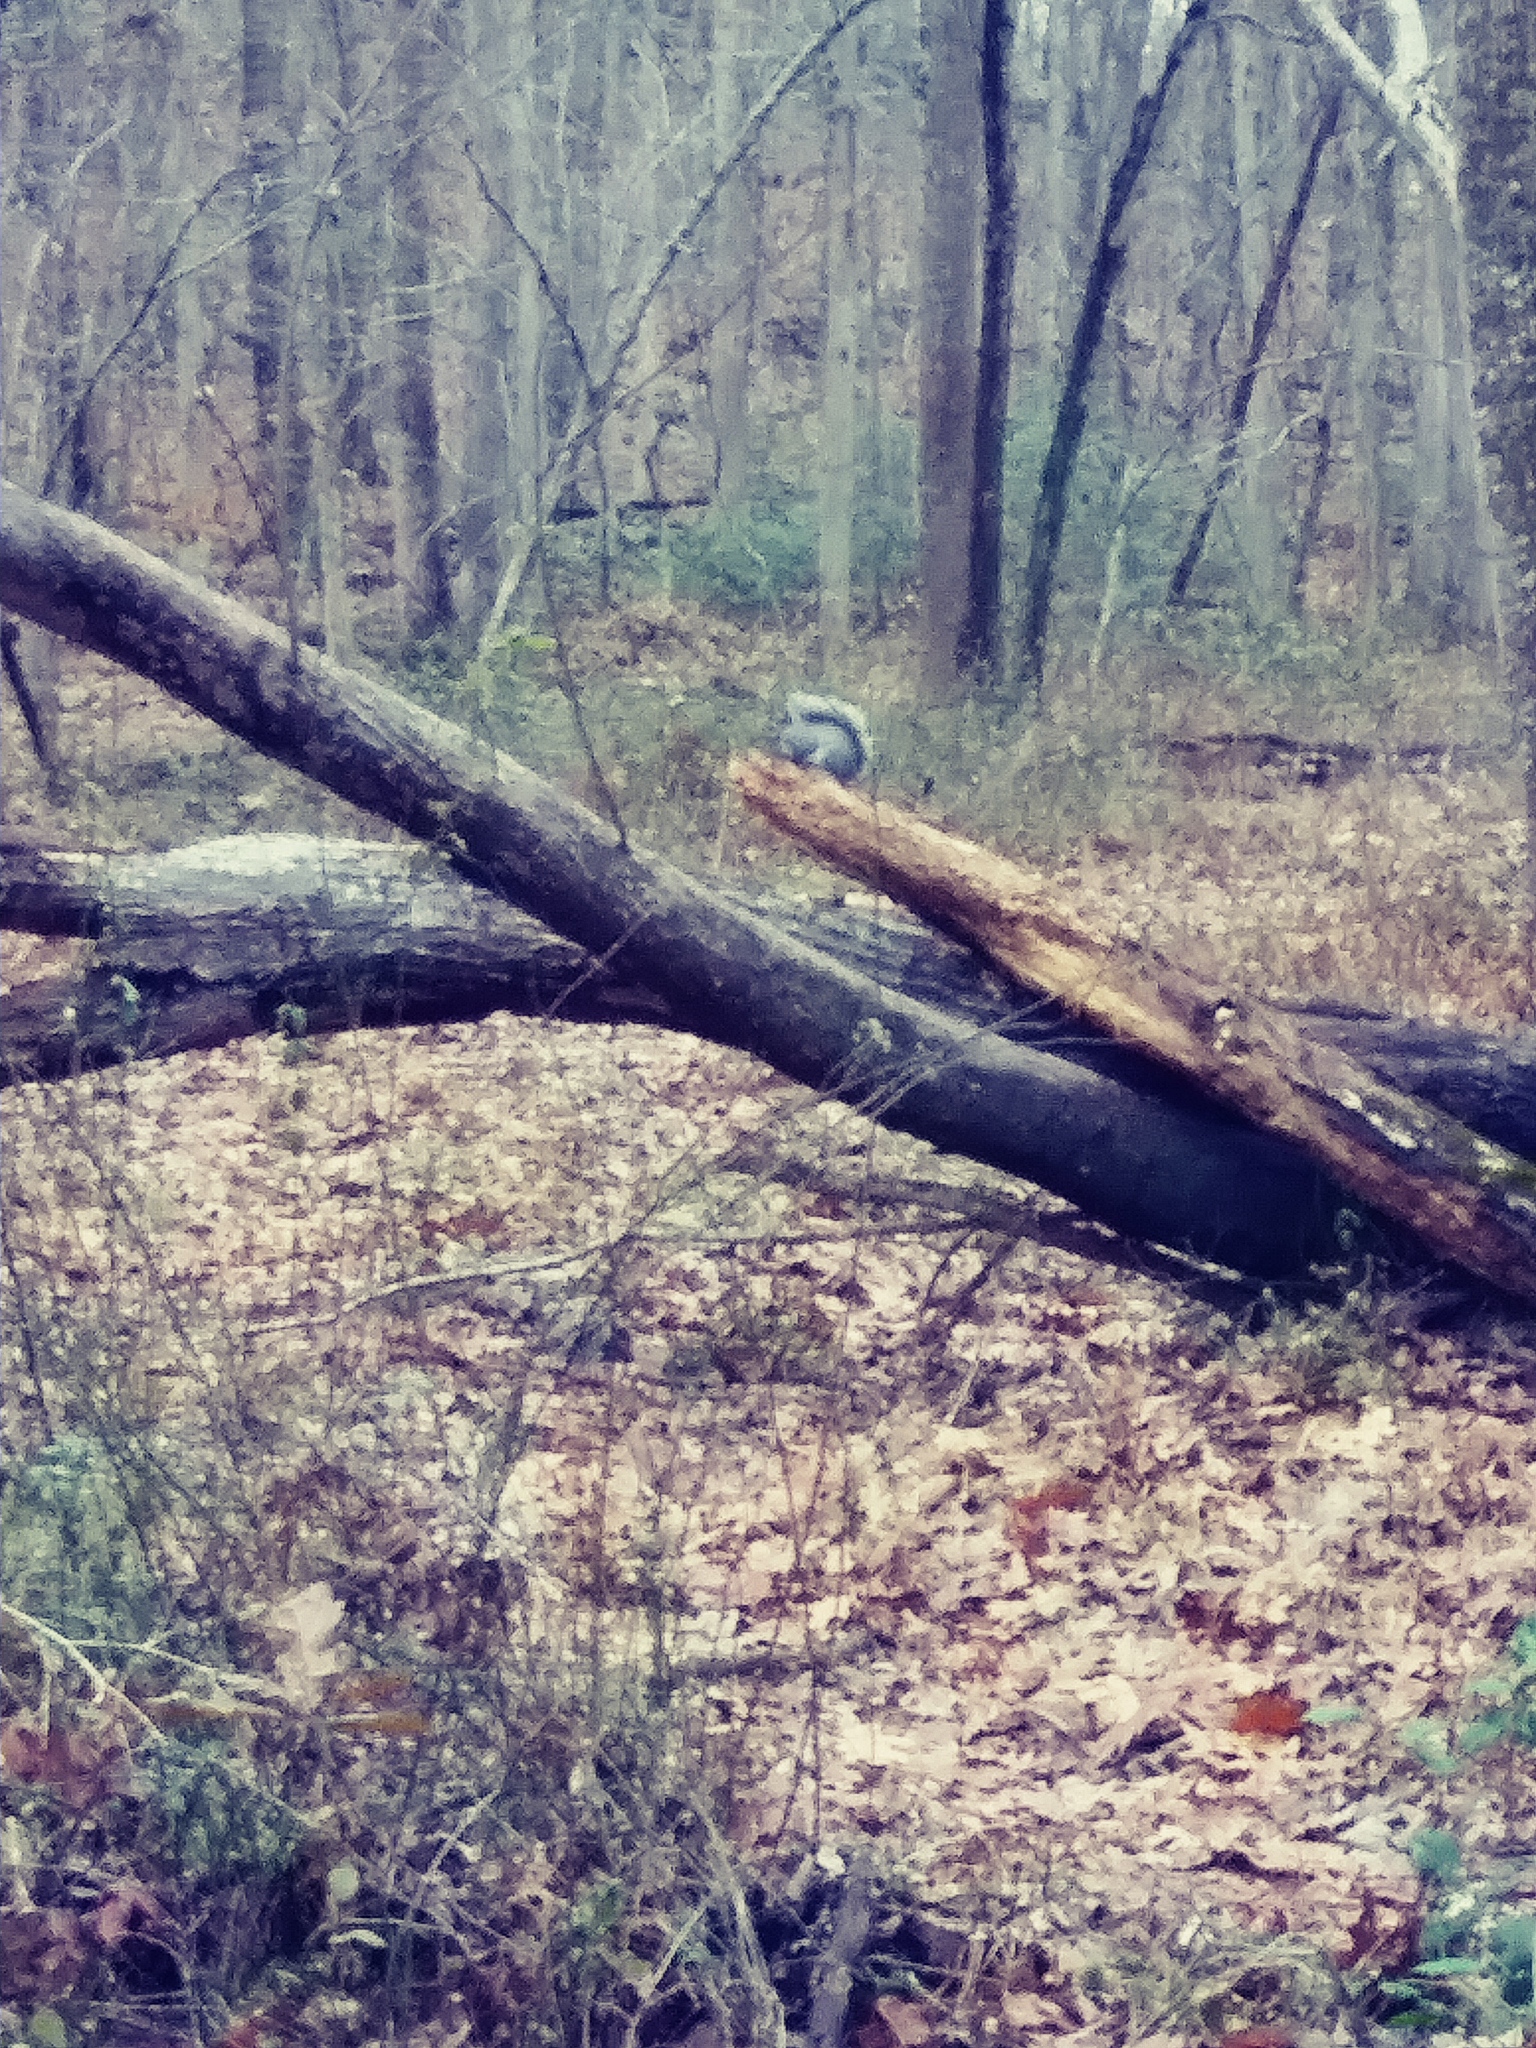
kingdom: Animalia
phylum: Chordata
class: Mammalia
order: Rodentia
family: Sciuridae
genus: Sciurus
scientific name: Sciurus carolinensis
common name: Eastern gray squirrel
